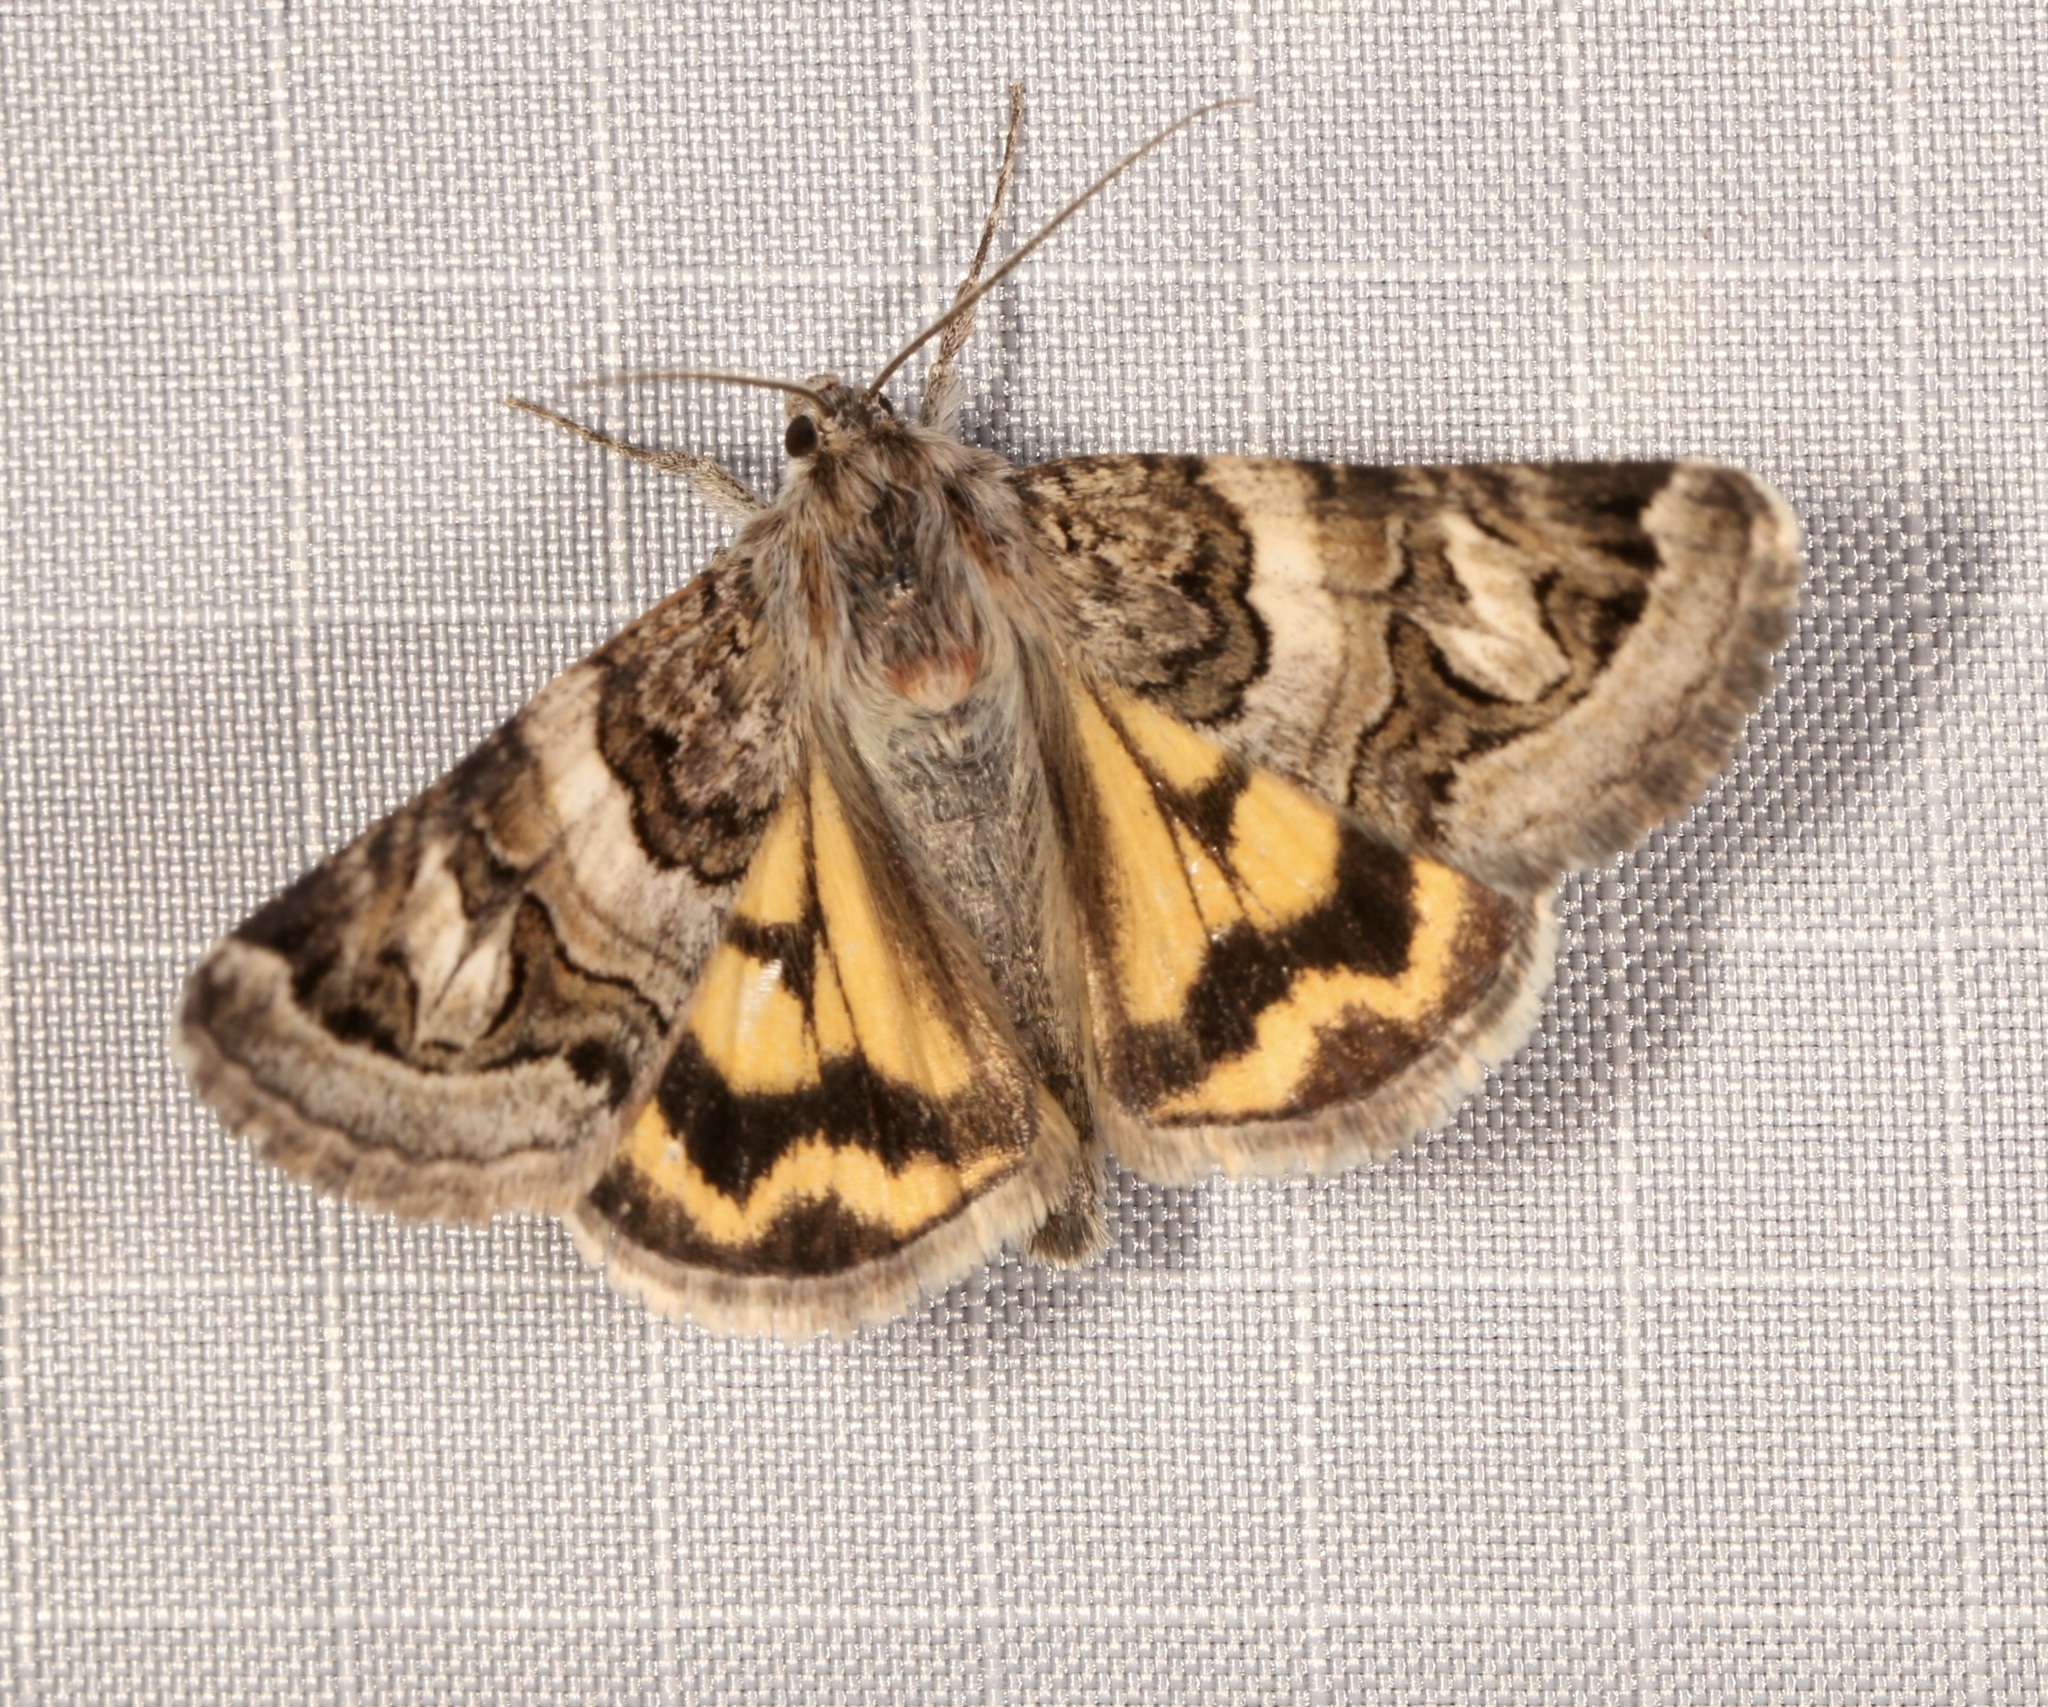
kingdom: Animalia
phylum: Arthropoda
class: Insecta
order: Lepidoptera
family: Erebidae
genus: Drasteria
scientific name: Drasteria howlandii
